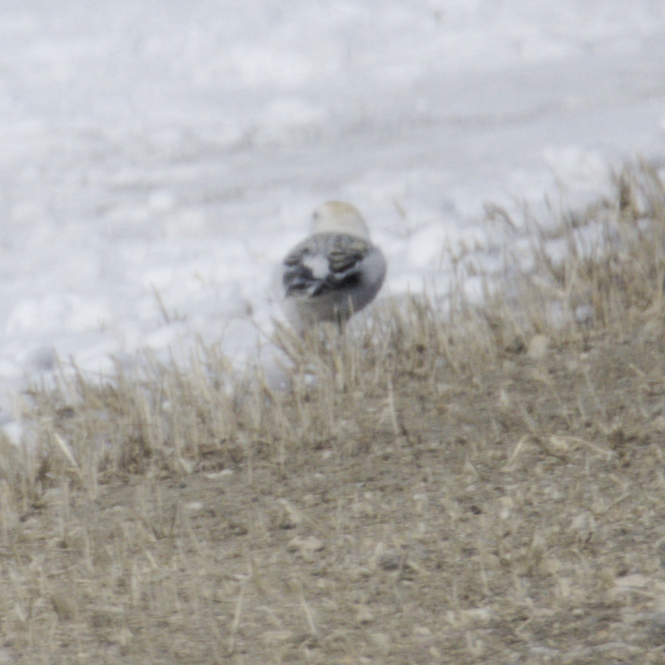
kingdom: Animalia
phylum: Chordata
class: Aves
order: Passeriformes
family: Calcariidae
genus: Plectrophenax
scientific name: Plectrophenax nivalis
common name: Snow bunting
